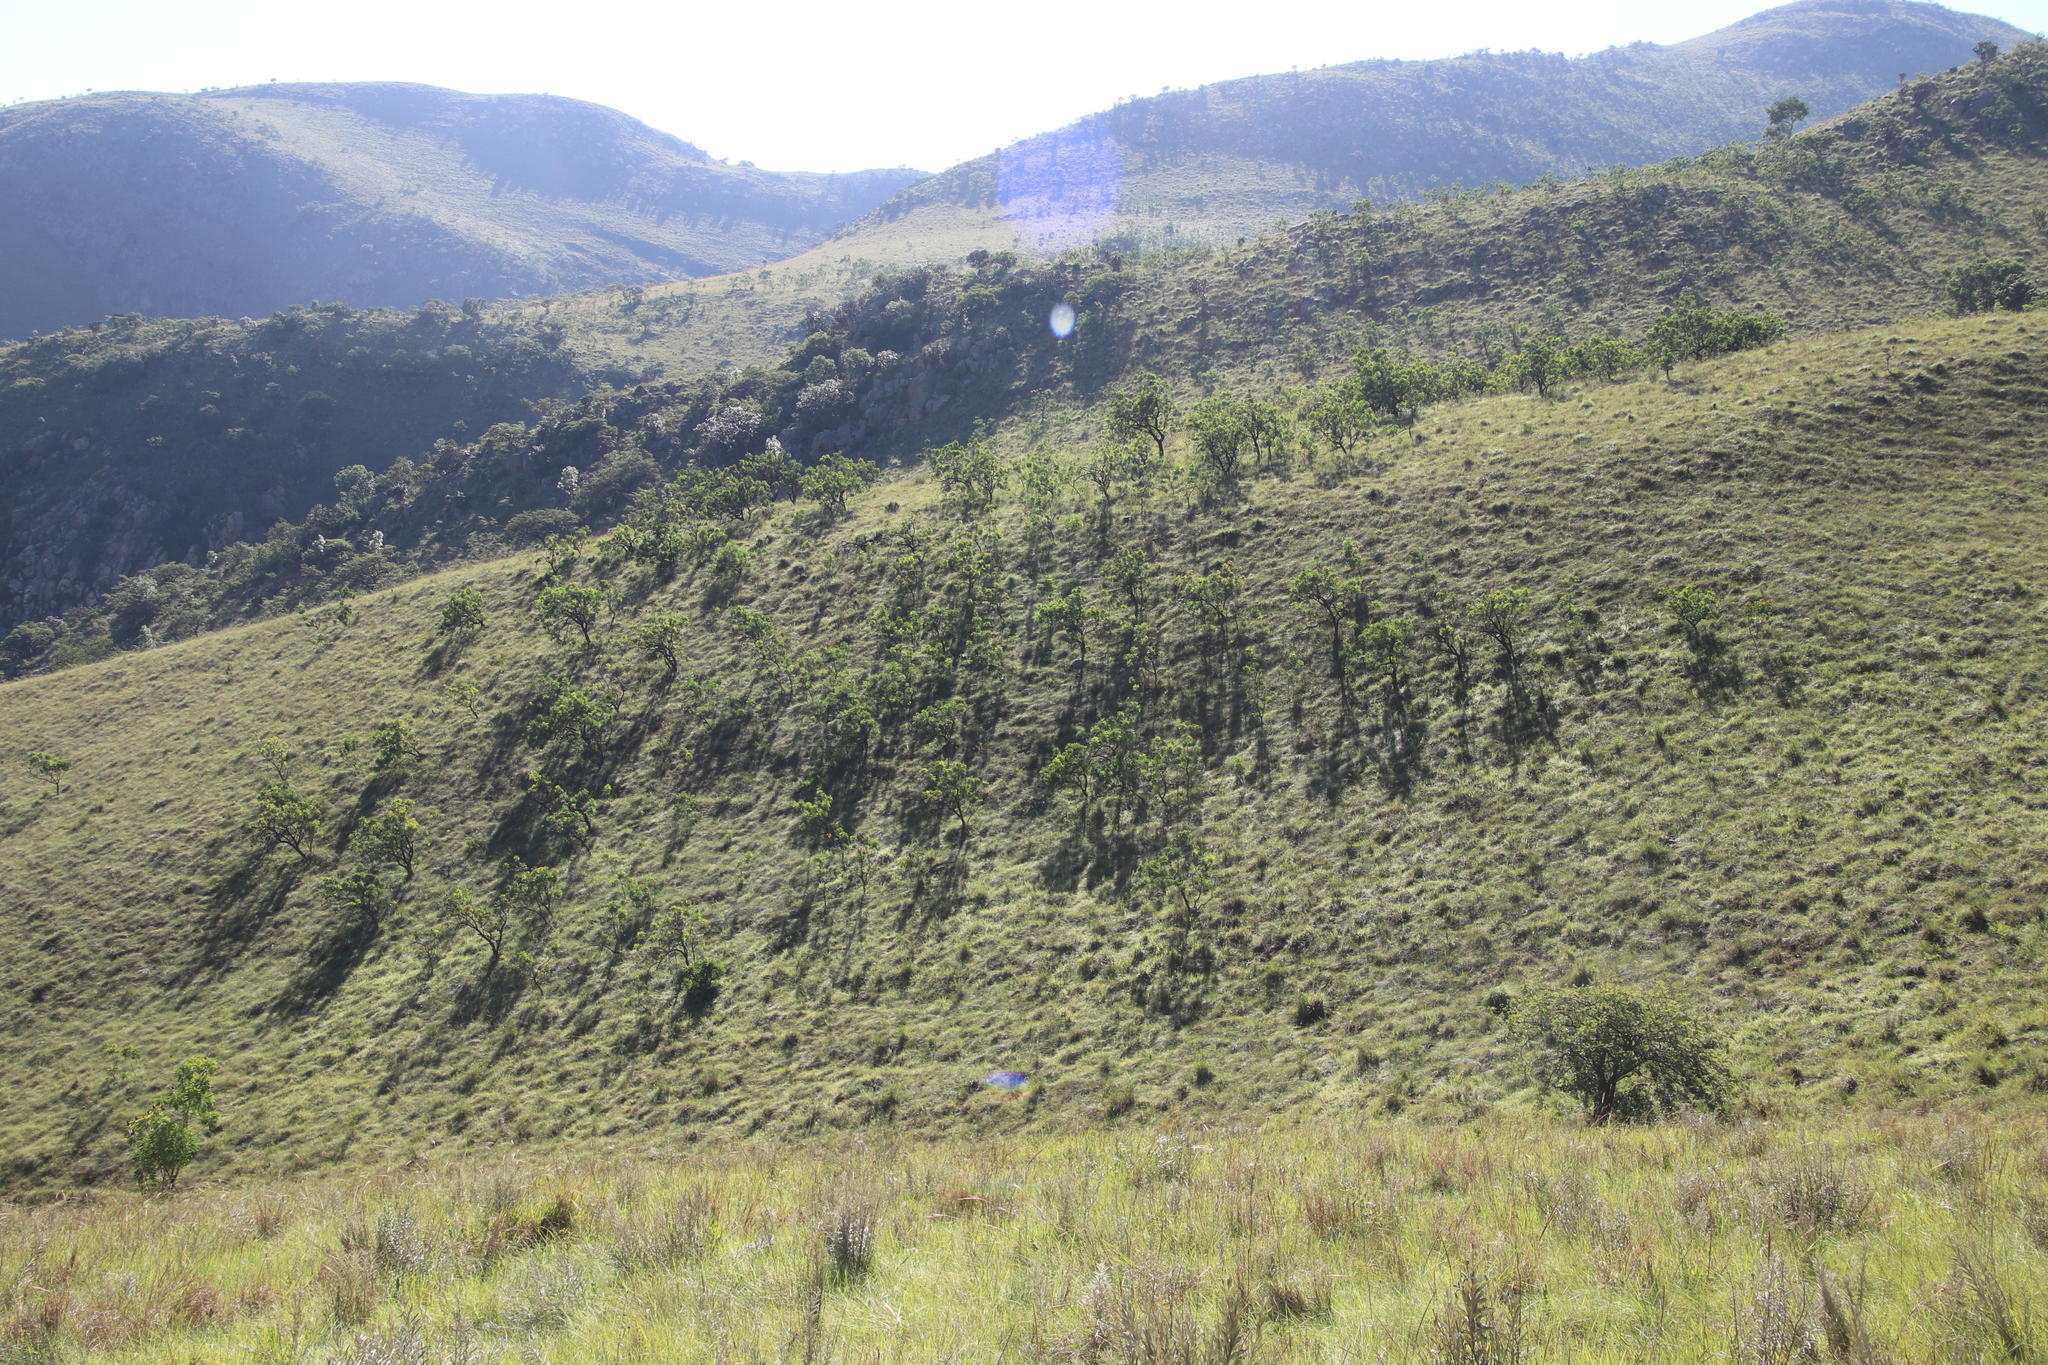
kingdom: Plantae
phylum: Tracheophyta
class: Magnoliopsida
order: Proteales
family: Proteaceae
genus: Protea
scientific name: Protea caffra
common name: Common sugarbush
